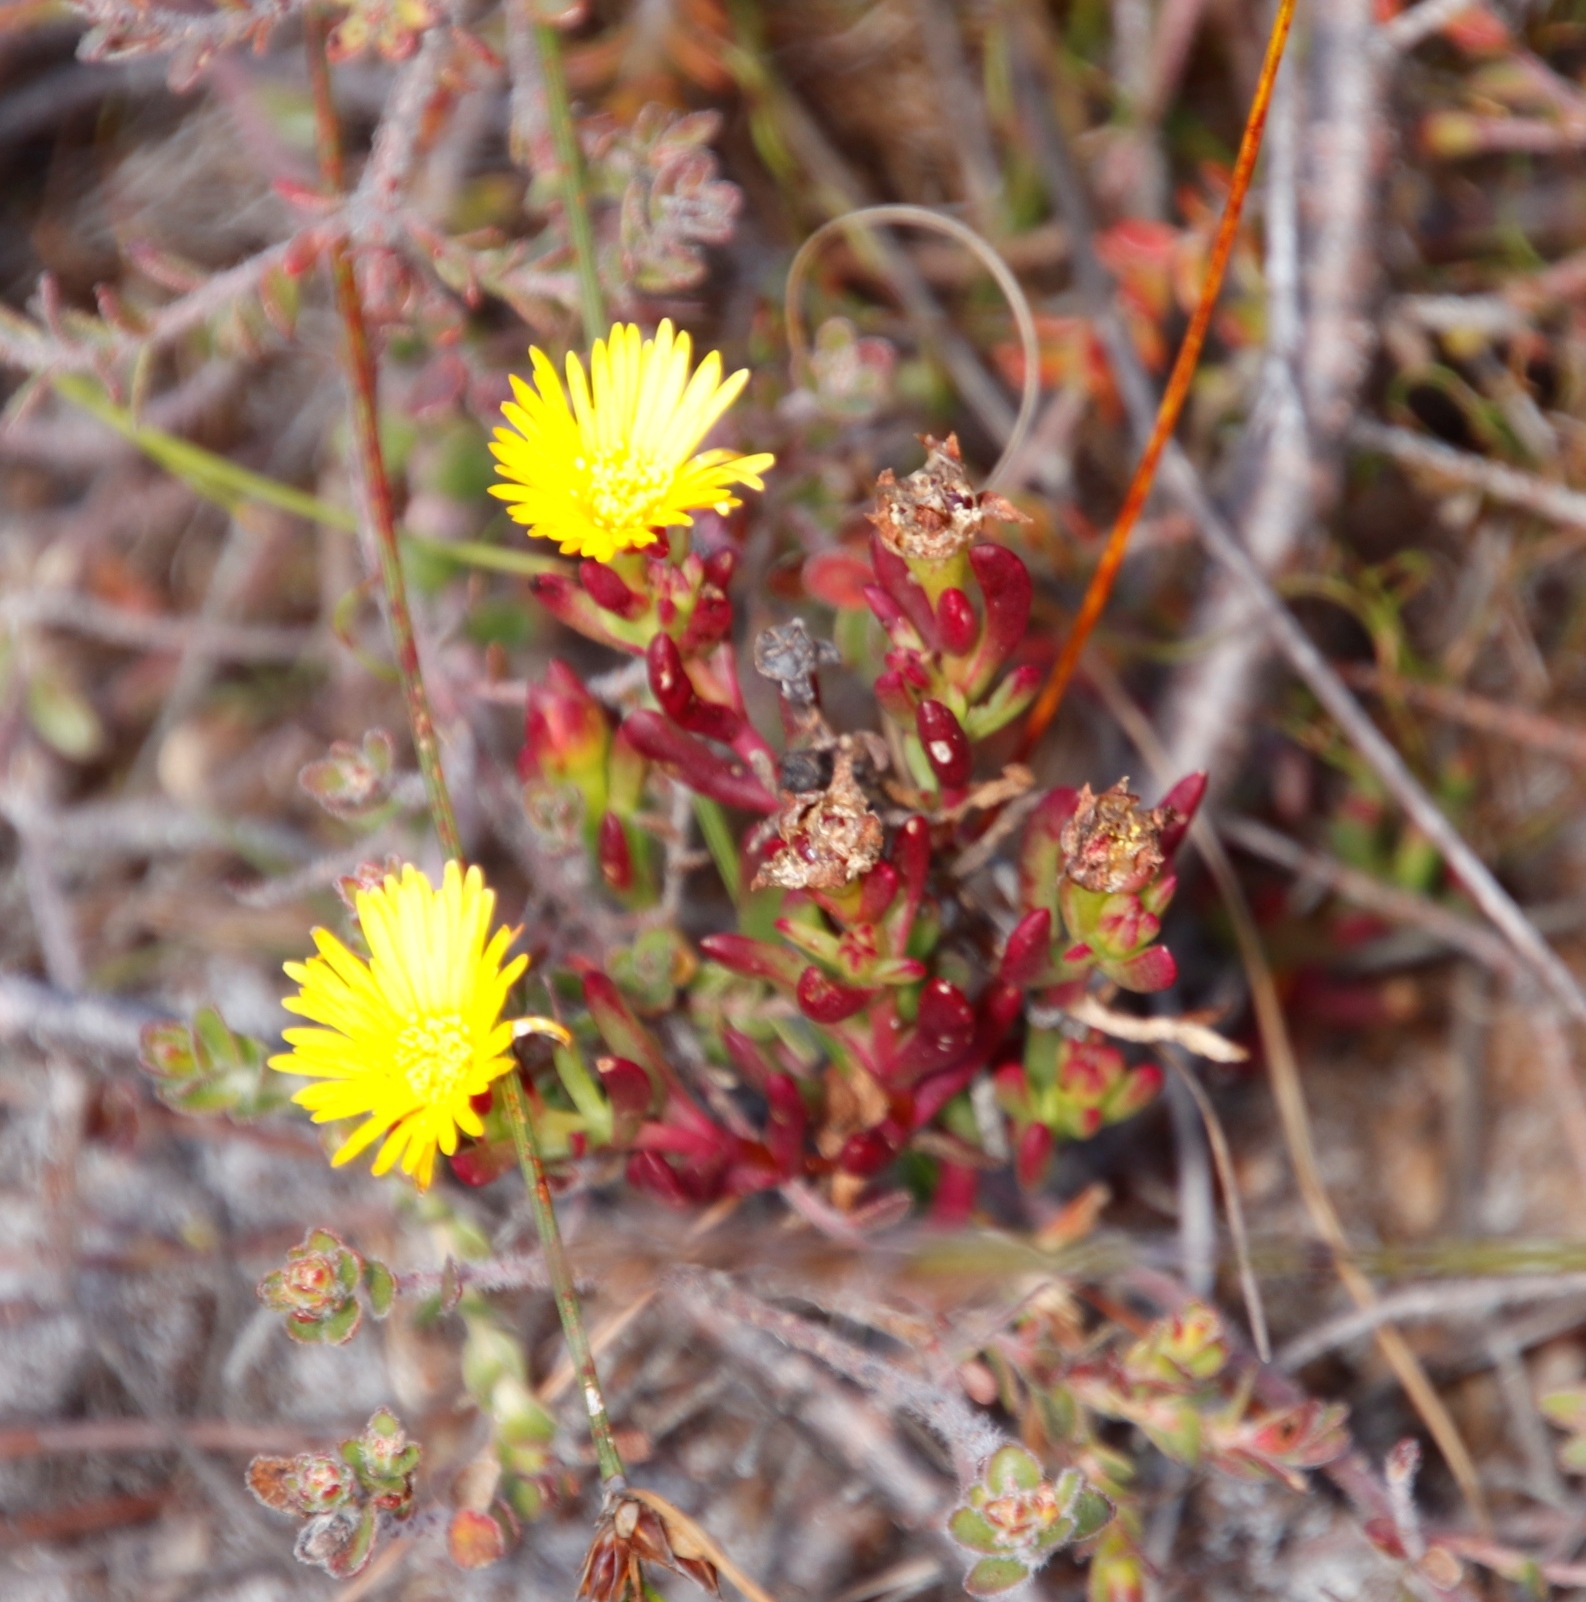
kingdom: Plantae
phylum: Tracheophyta
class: Magnoliopsida
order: Caryophyllales
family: Aizoaceae
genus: Lampranthus
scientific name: Lampranthus promontorii
